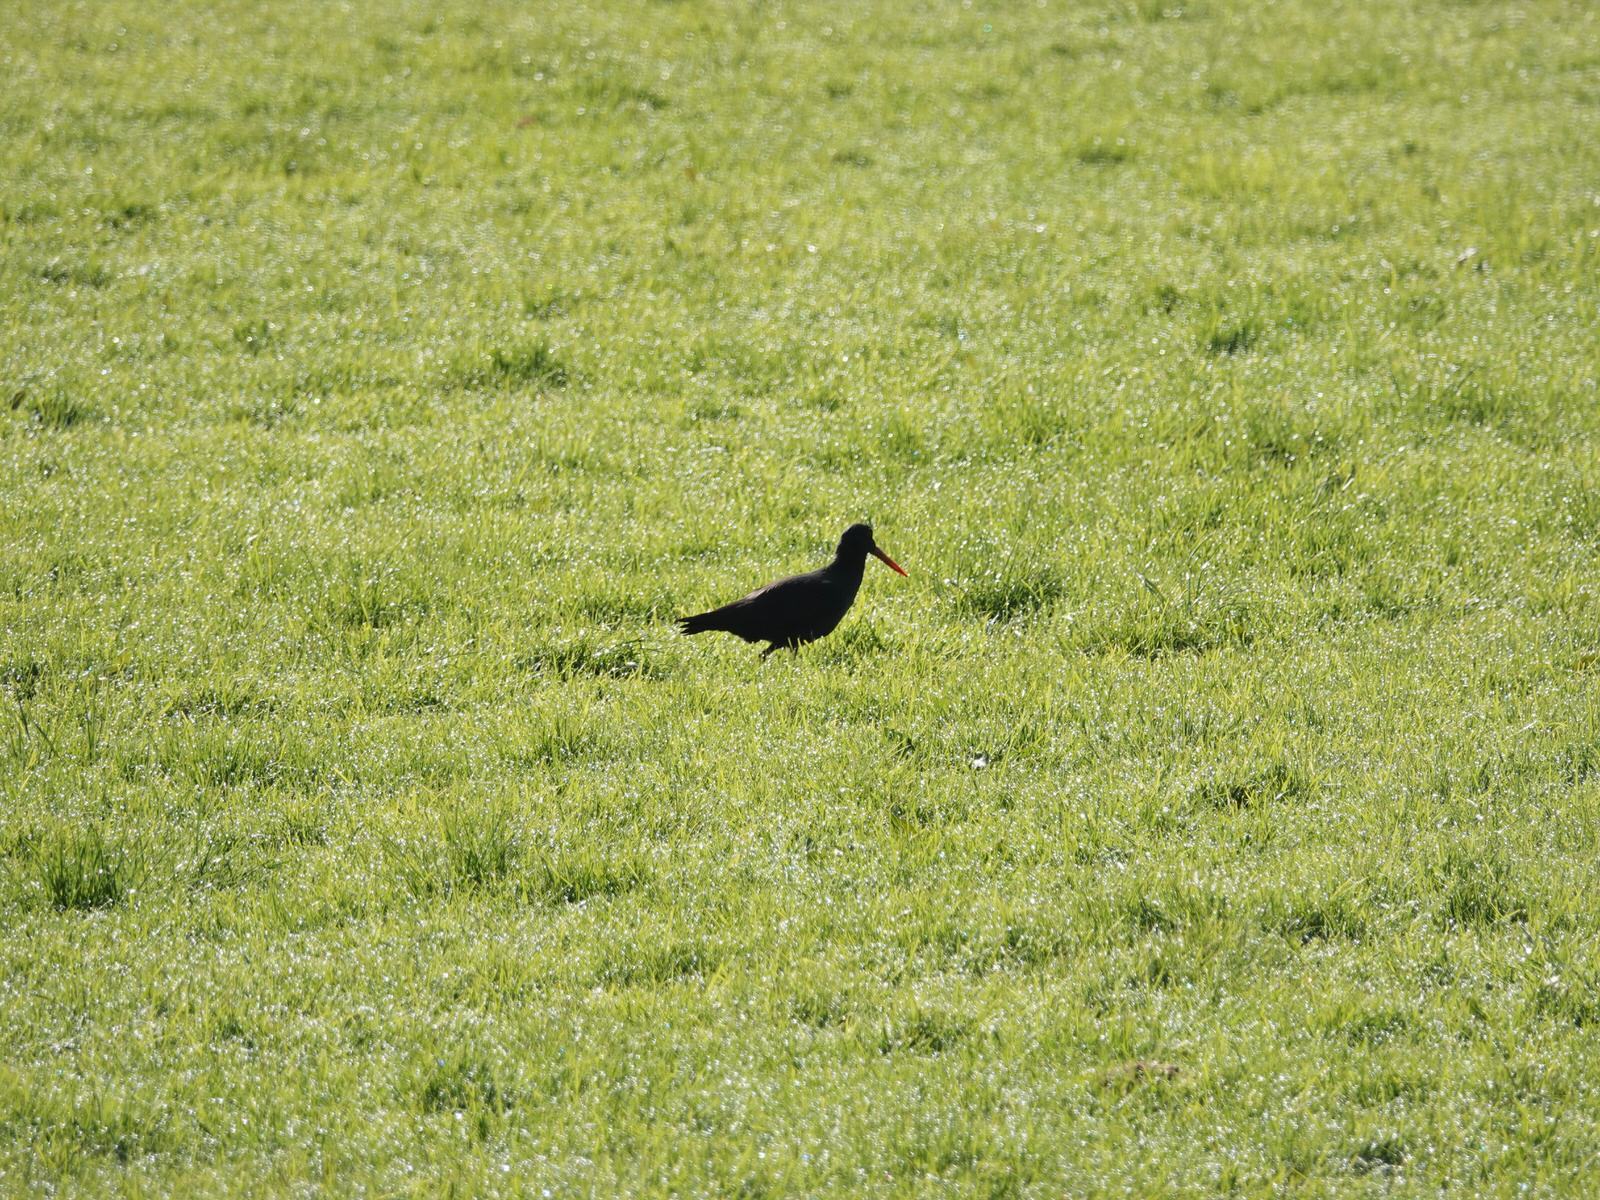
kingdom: Animalia
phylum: Chordata
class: Aves
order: Charadriiformes
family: Haematopodidae
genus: Haematopus
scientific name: Haematopus unicolor
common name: Variable oystercatcher
